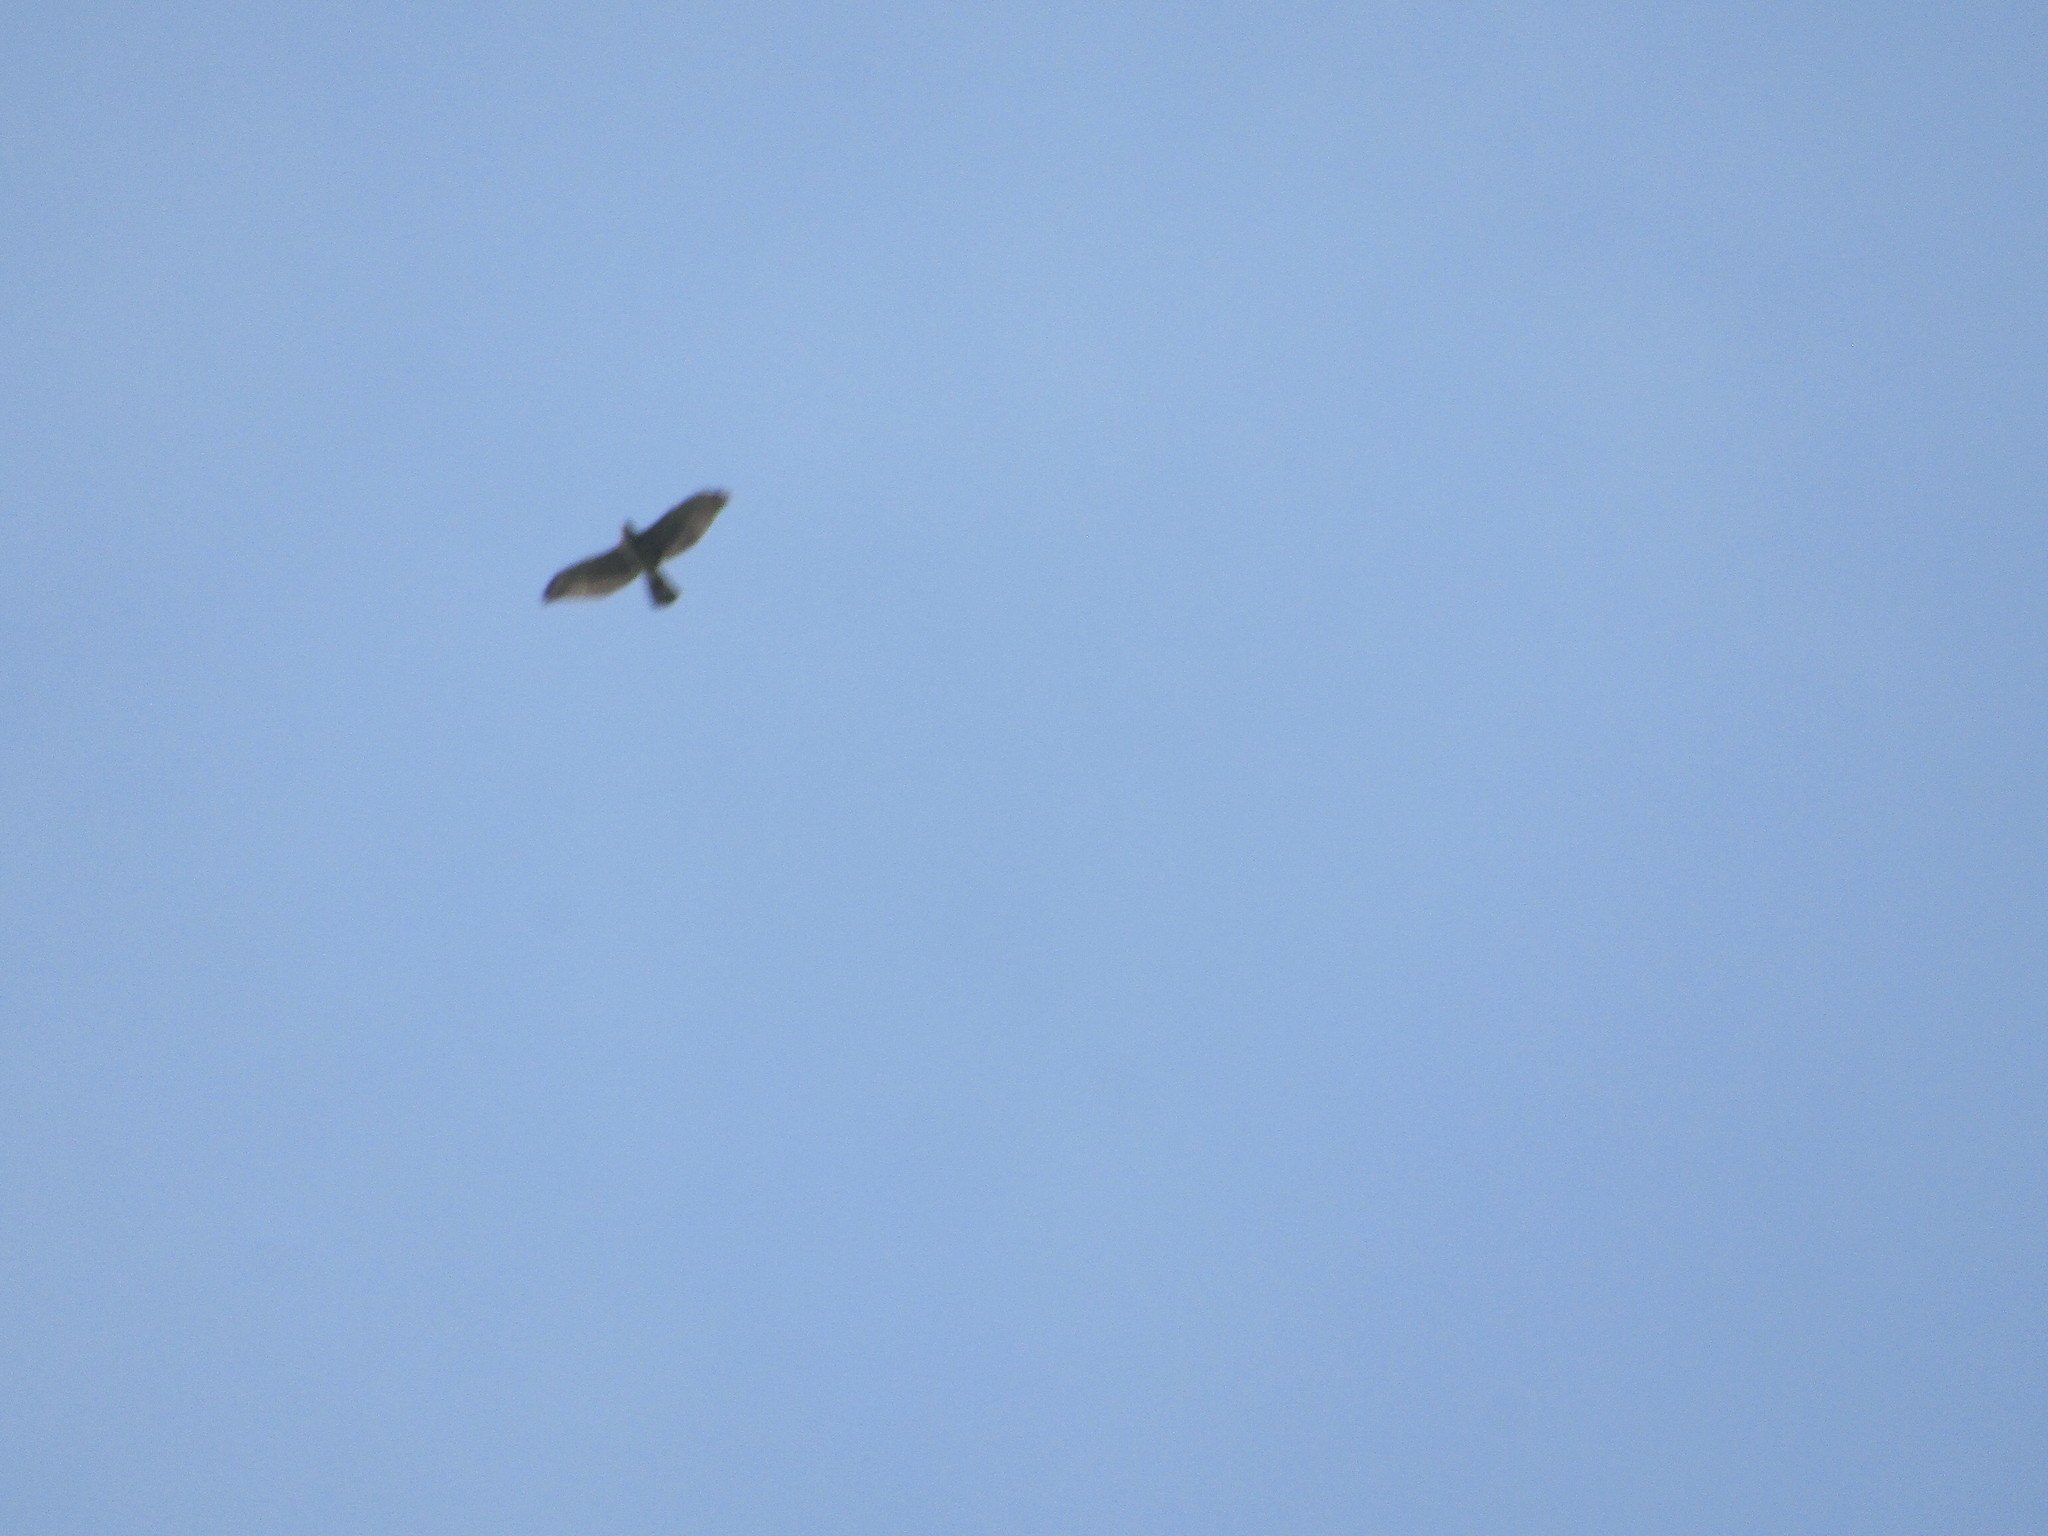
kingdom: Animalia
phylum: Chordata
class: Aves
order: Accipitriformes
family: Accipitridae
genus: Buteo
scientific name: Buteo platypterus
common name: Broad-winged hawk
